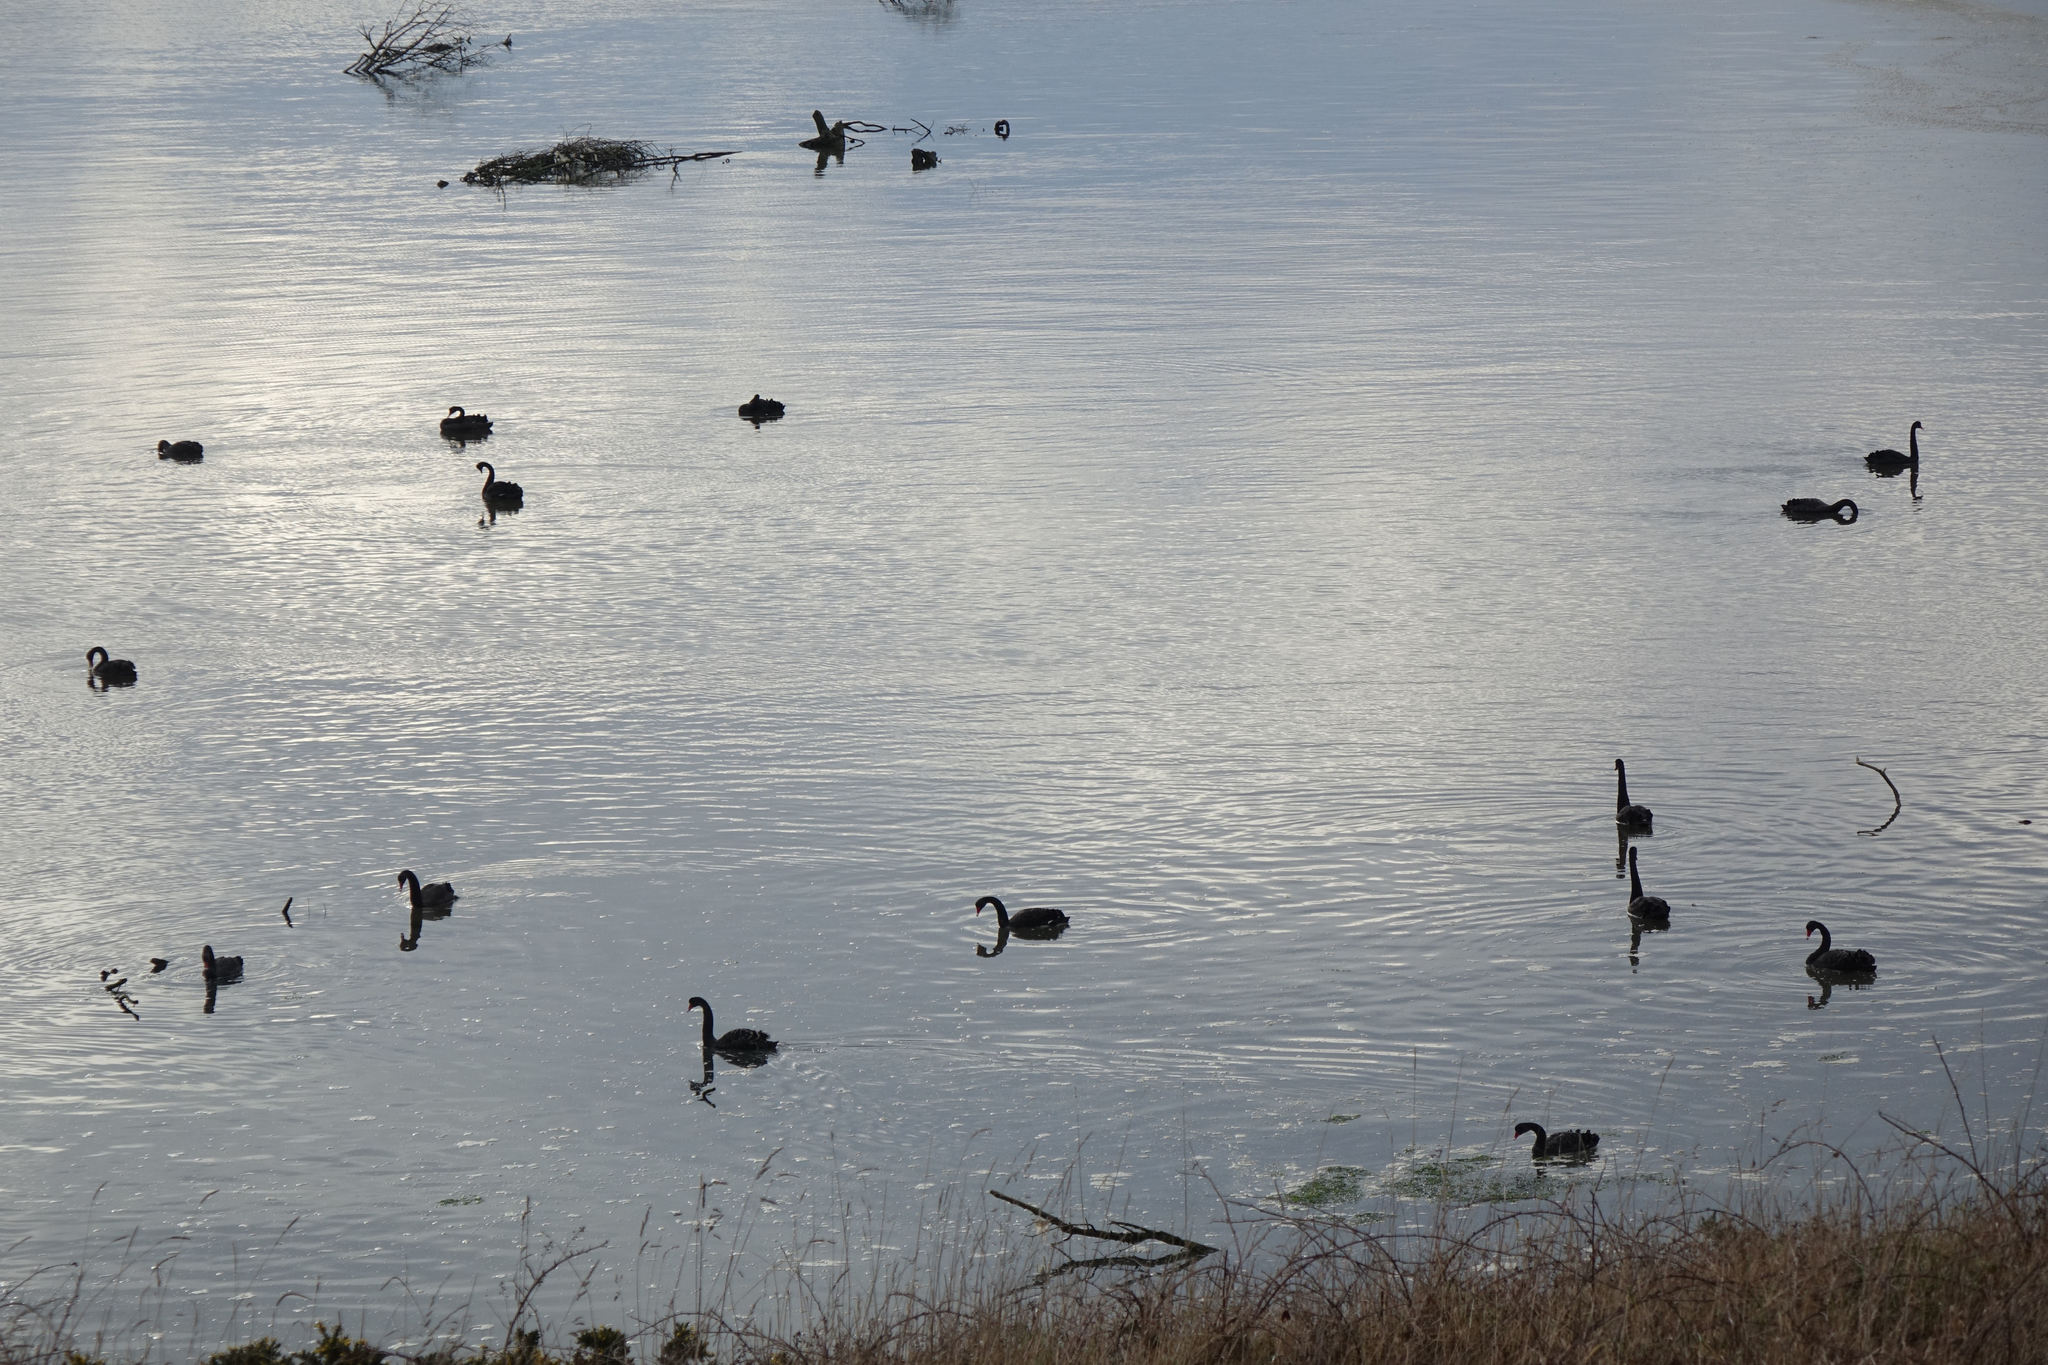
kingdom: Animalia
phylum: Chordata
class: Aves
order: Anseriformes
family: Anatidae
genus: Cygnus
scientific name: Cygnus atratus
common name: Black swan
